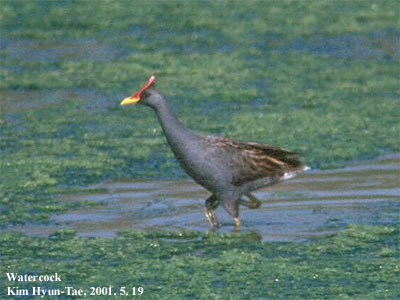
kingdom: Animalia
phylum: Chordata
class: Aves
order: Gruiformes
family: Rallidae
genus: Gallicrex
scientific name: Gallicrex cinerea
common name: Watercock
